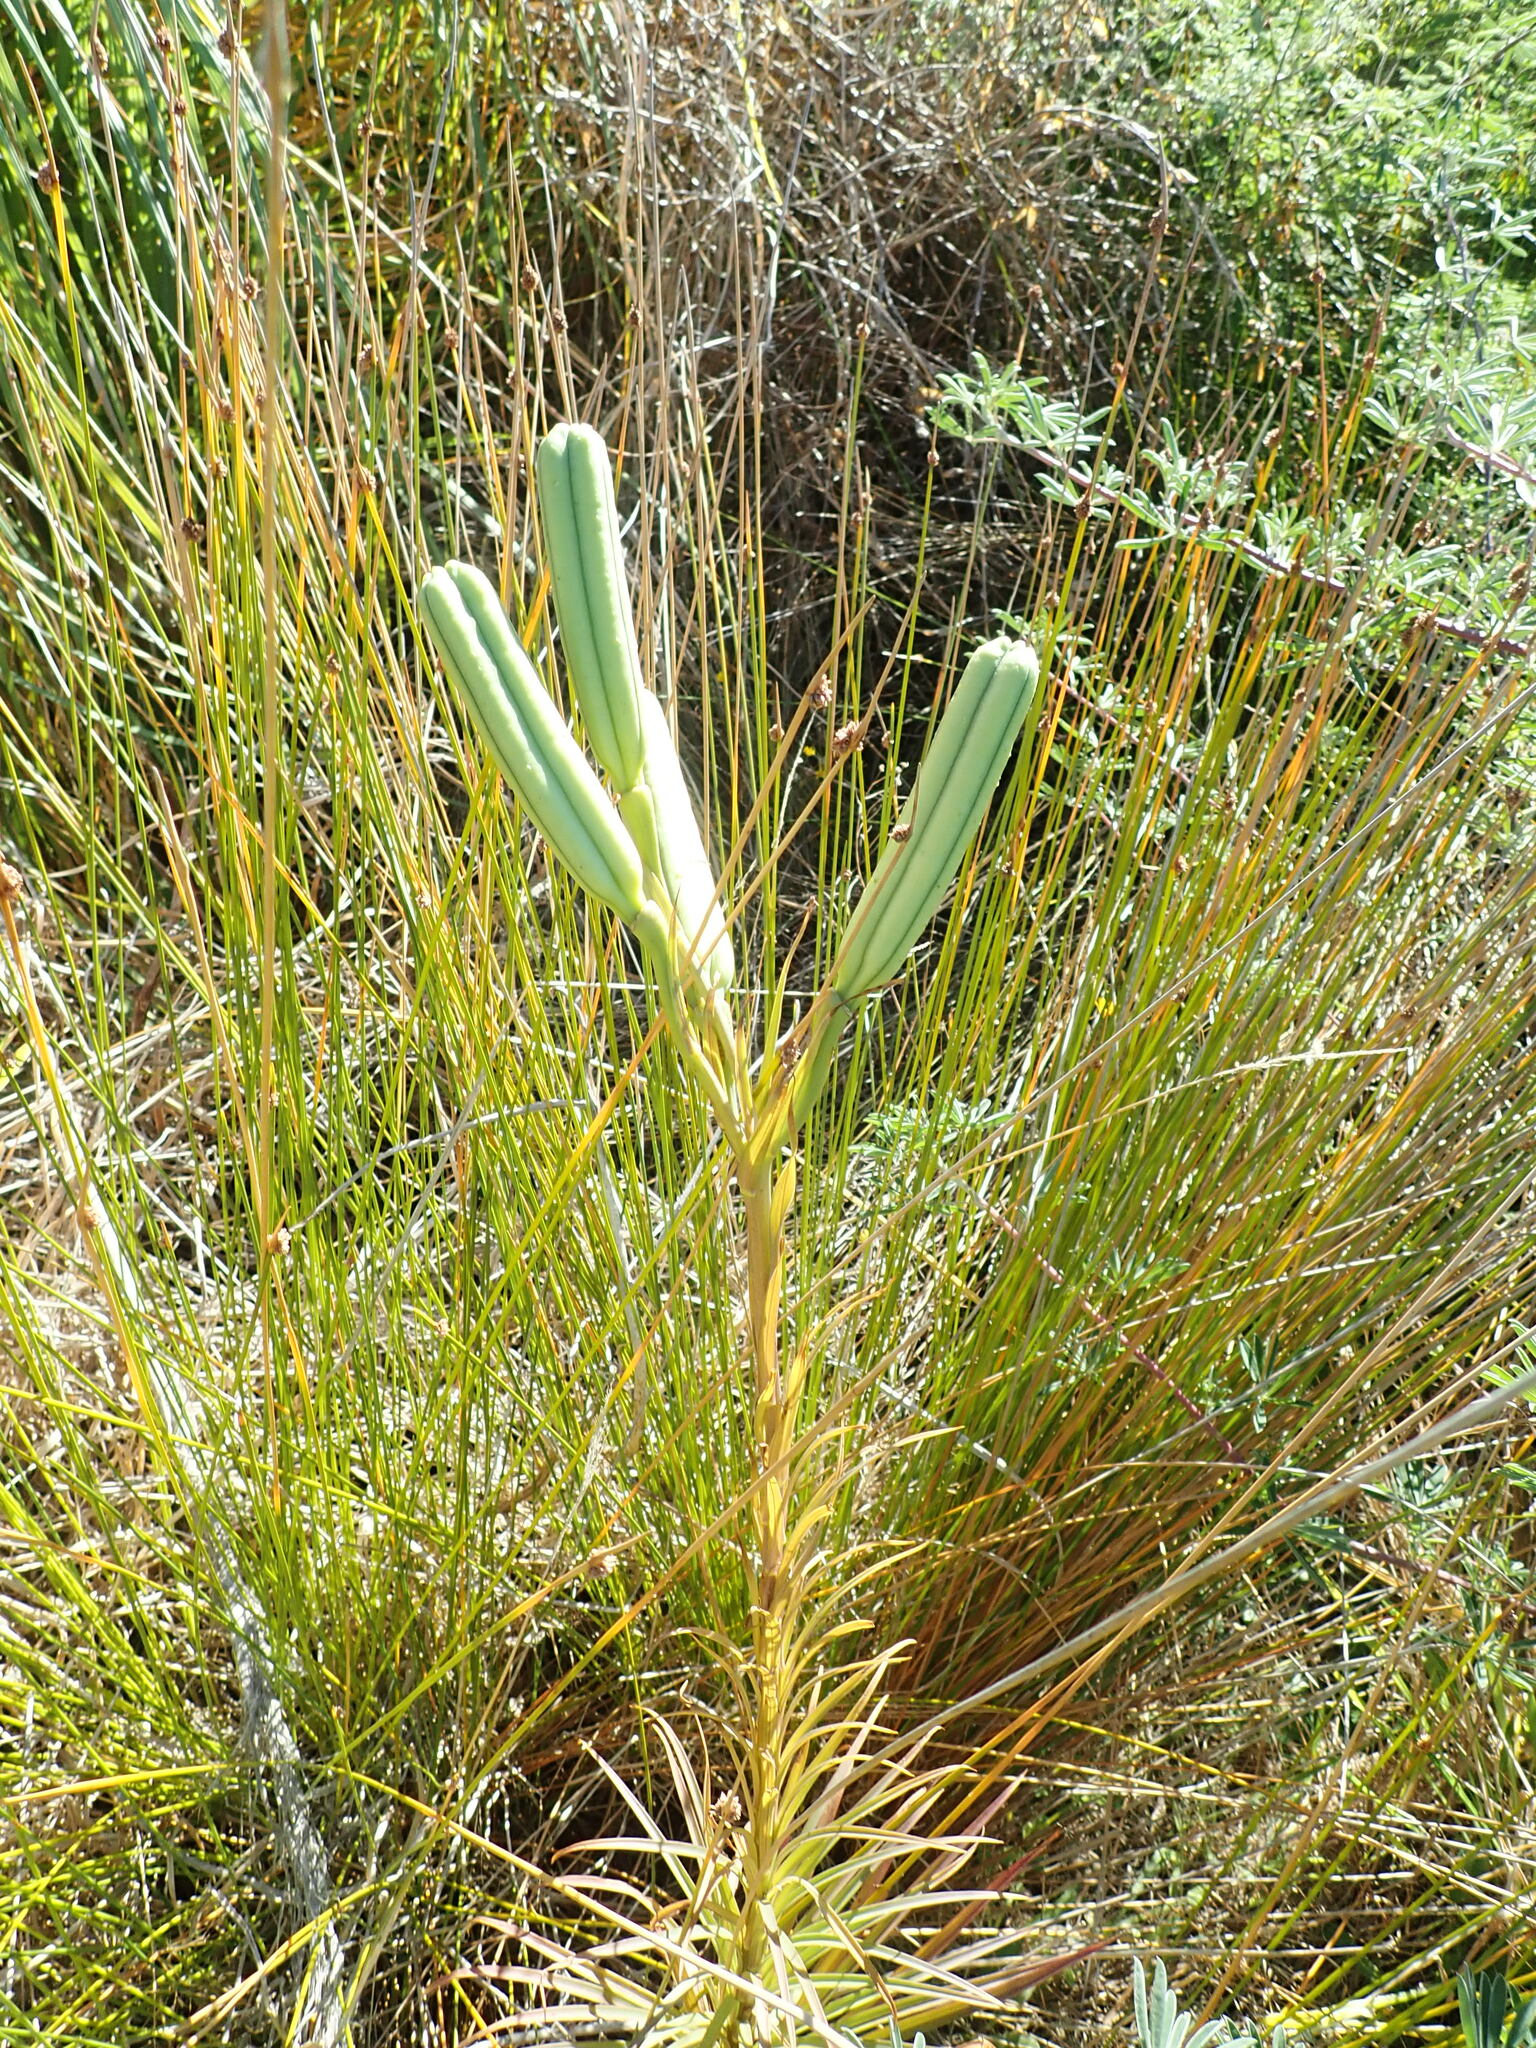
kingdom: Plantae
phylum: Tracheophyta
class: Liliopsida
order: Liliales
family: Liliaceae
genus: Lilium
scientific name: Lilium formosanum
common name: Formosa lily
